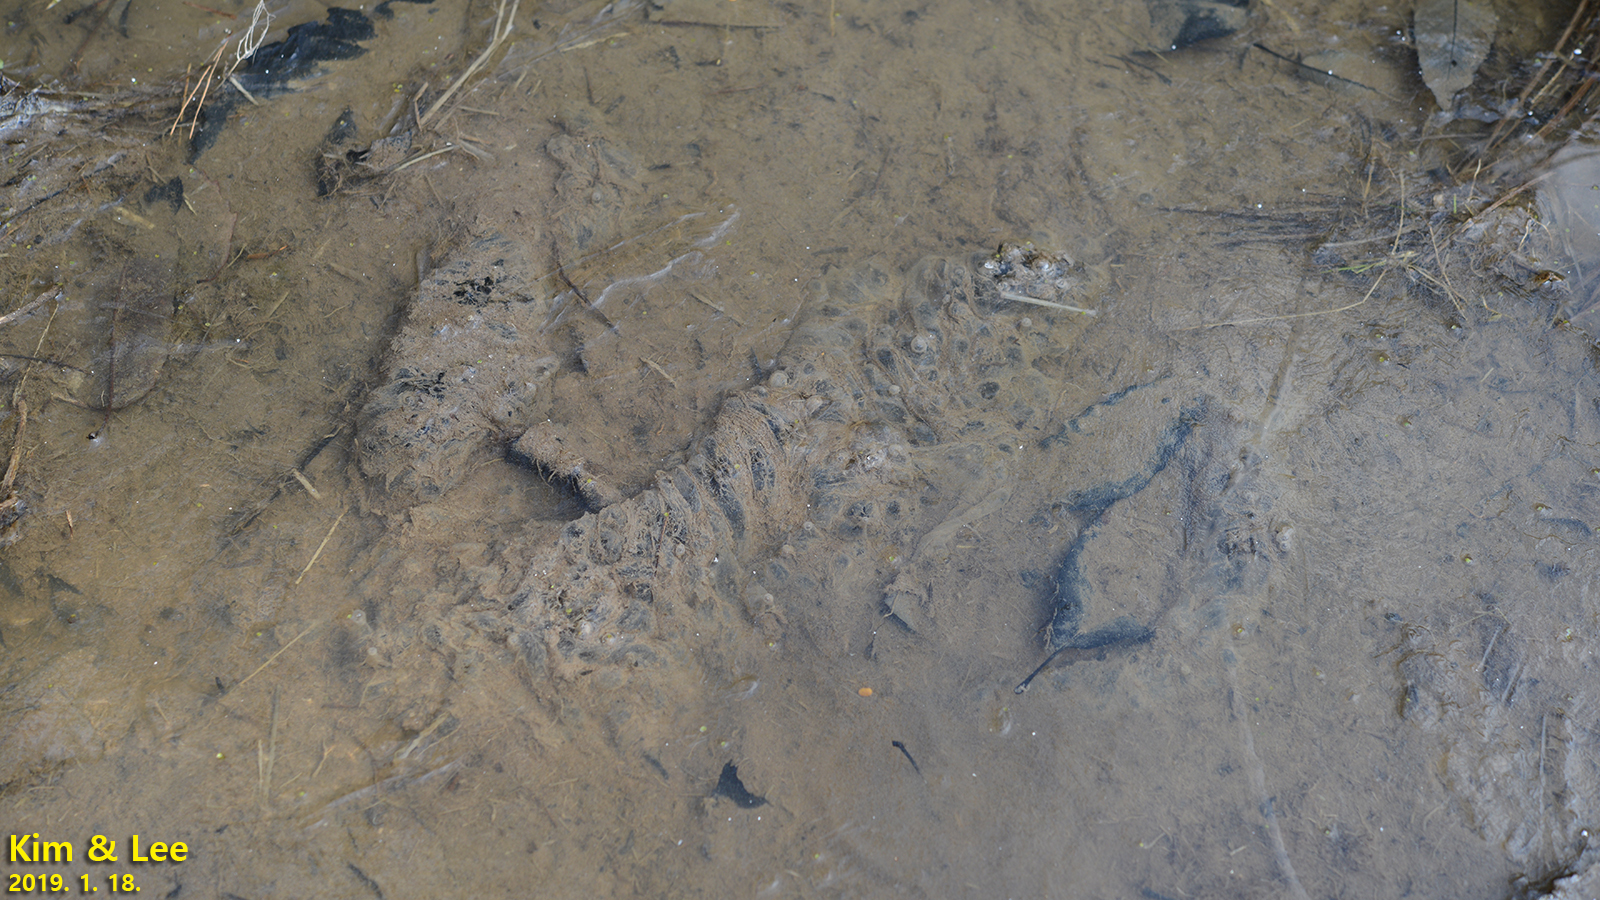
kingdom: Animalia
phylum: Chordata
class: Amphibia
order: Anura
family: Ranidae
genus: Rana
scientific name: Rana uenoi
